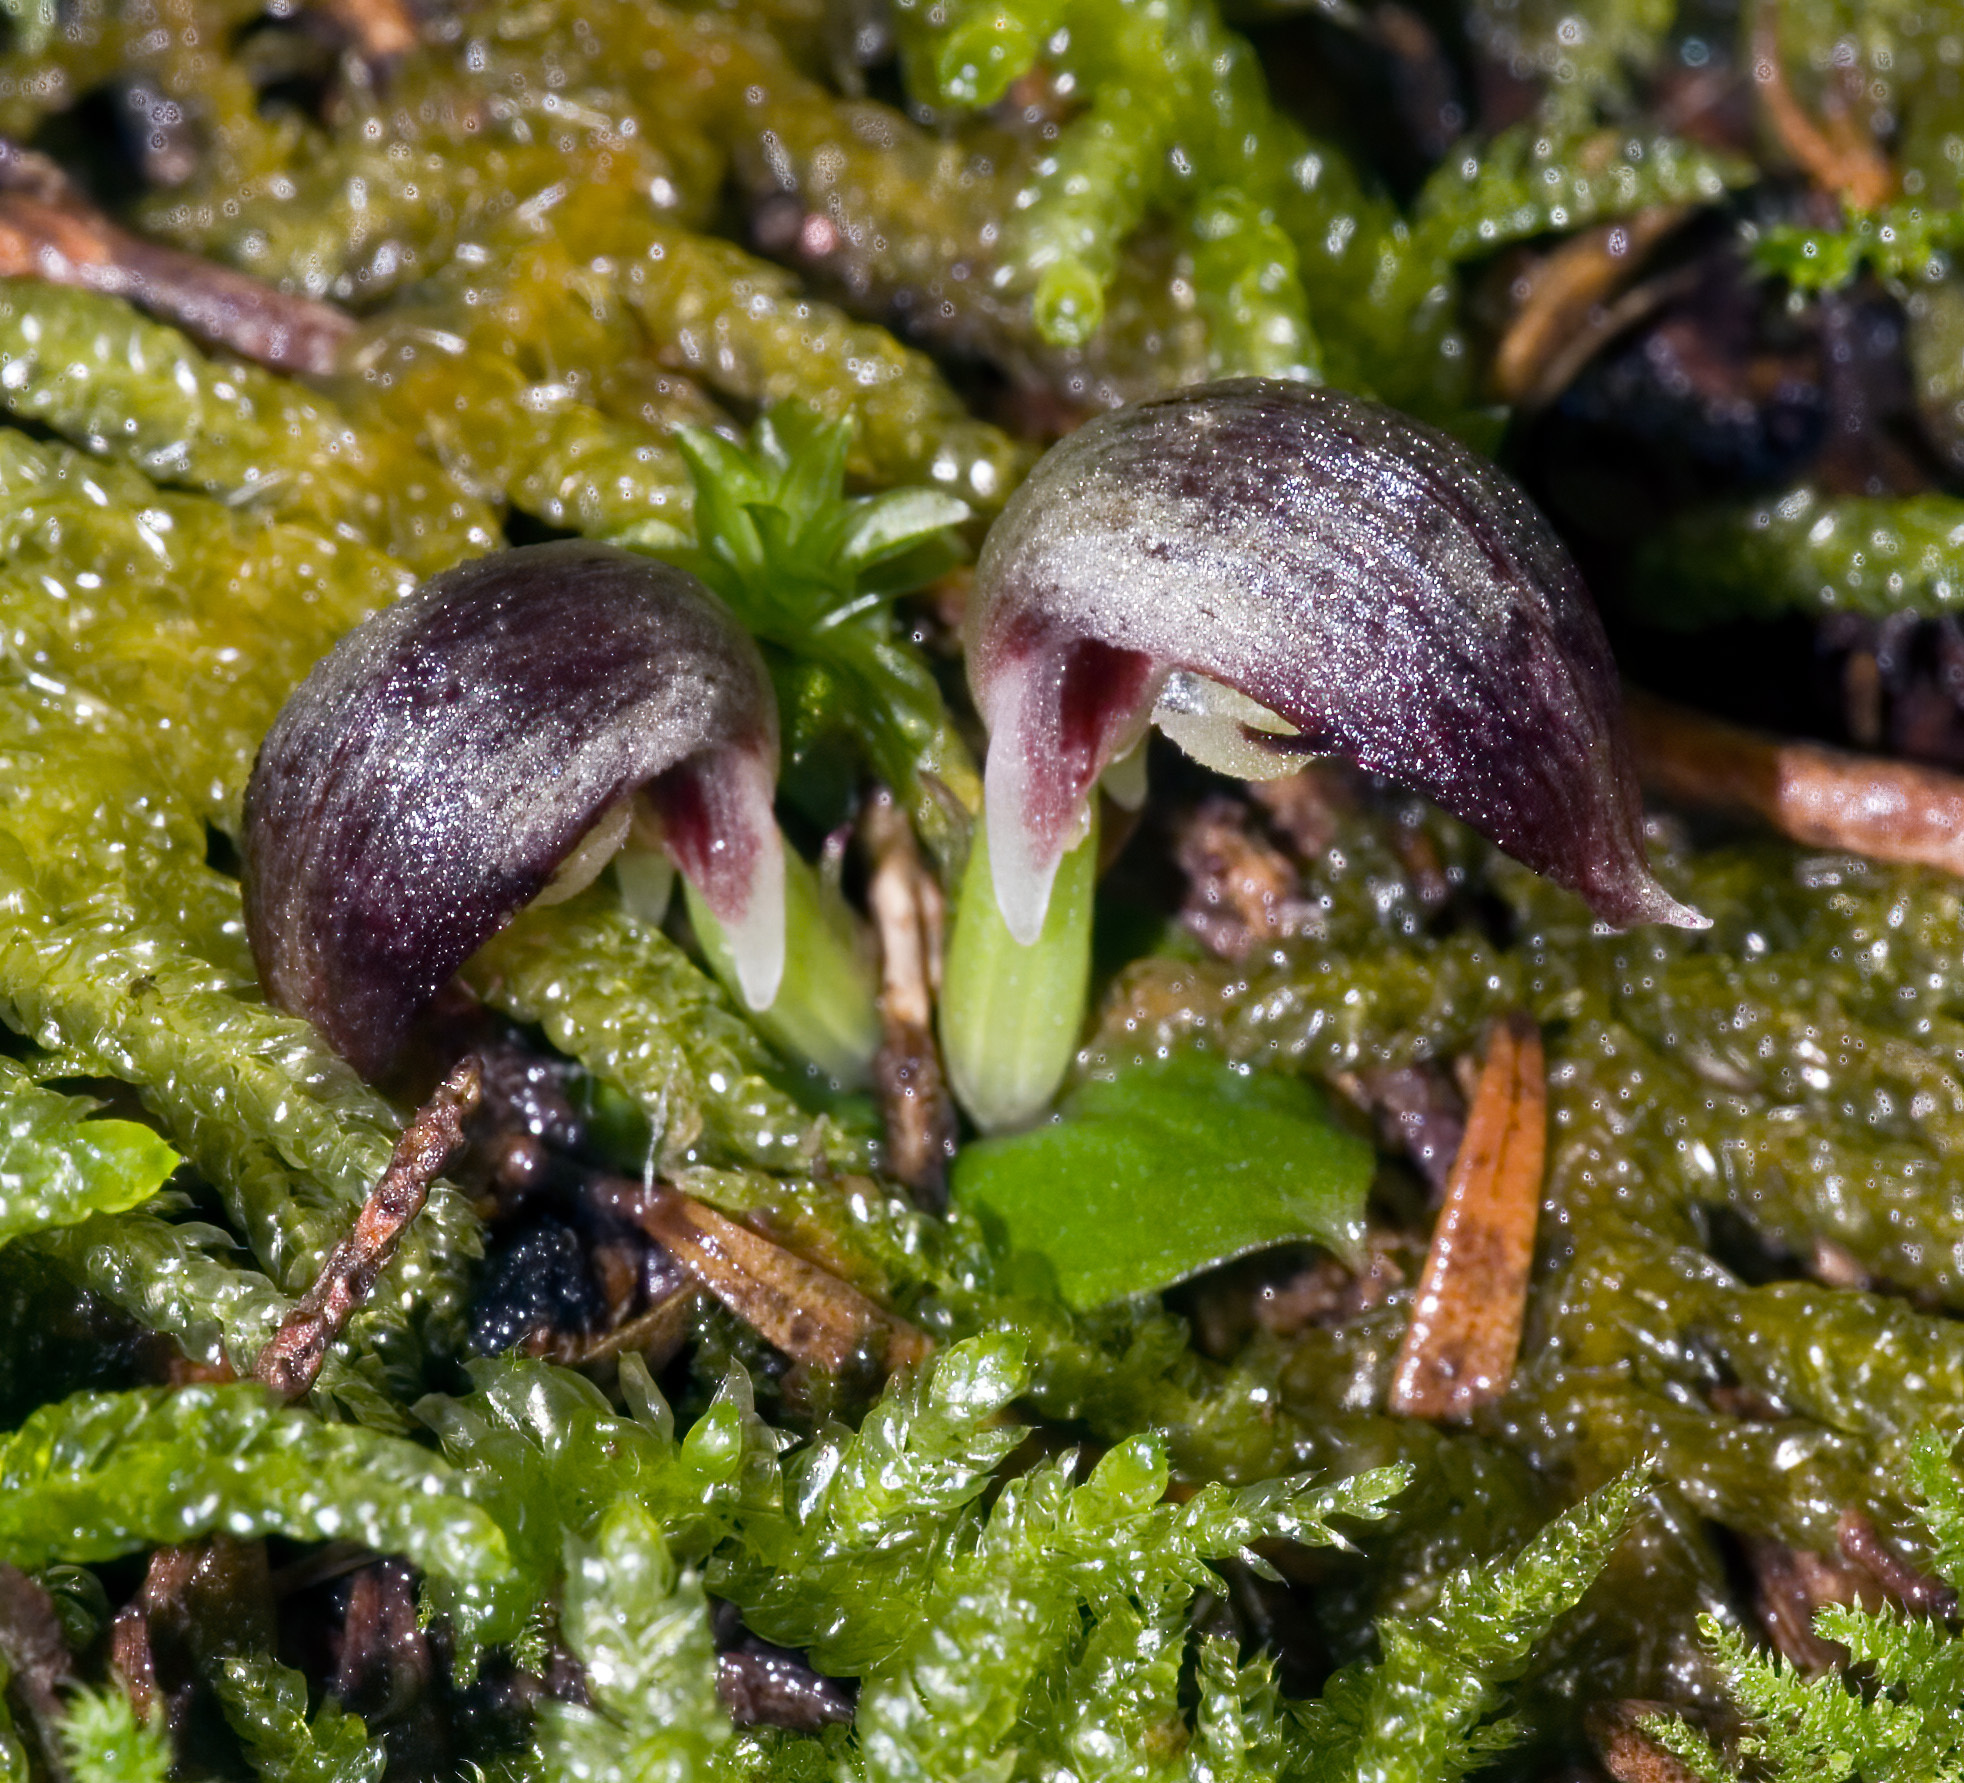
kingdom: Plantae
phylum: Tracheophyta
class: Liliopsida
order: Asparagales
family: Orchidaceae
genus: Corybas
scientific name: Corybas cheesemanii
